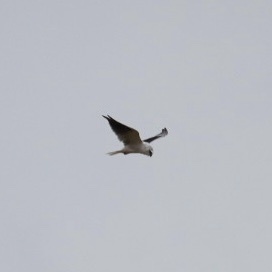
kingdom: Animalia
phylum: Chordata
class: Aves
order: Accipitriformes
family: Accipitridae
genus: Elanus
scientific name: Elanus axillaris
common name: Black-shouldered kite
